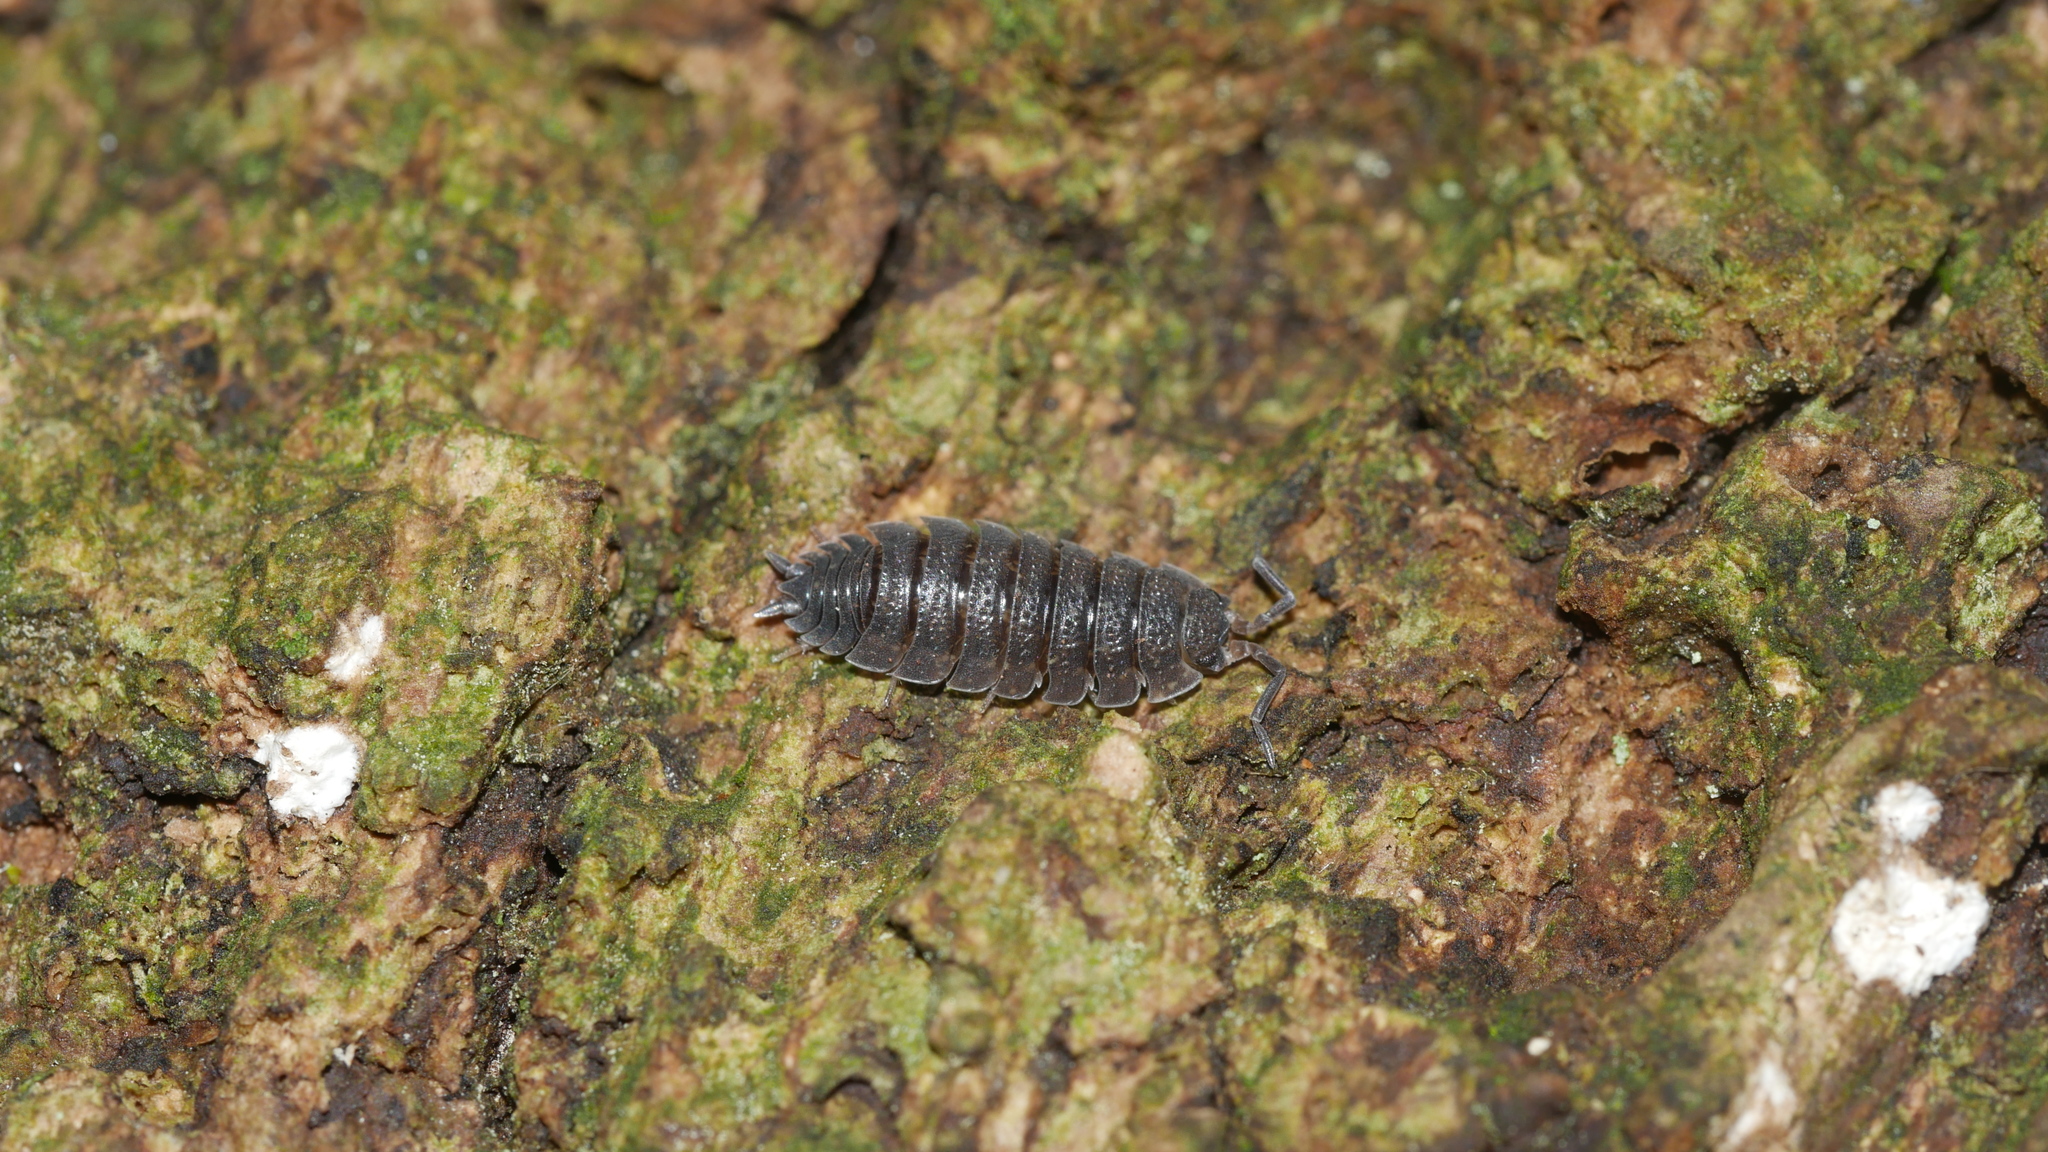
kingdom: Animalia
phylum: Arthropoda
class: Malacostraca
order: Isopoda
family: Porcellionidae
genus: Porcellio
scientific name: Porcellio scaber
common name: Common rough woodlouse
